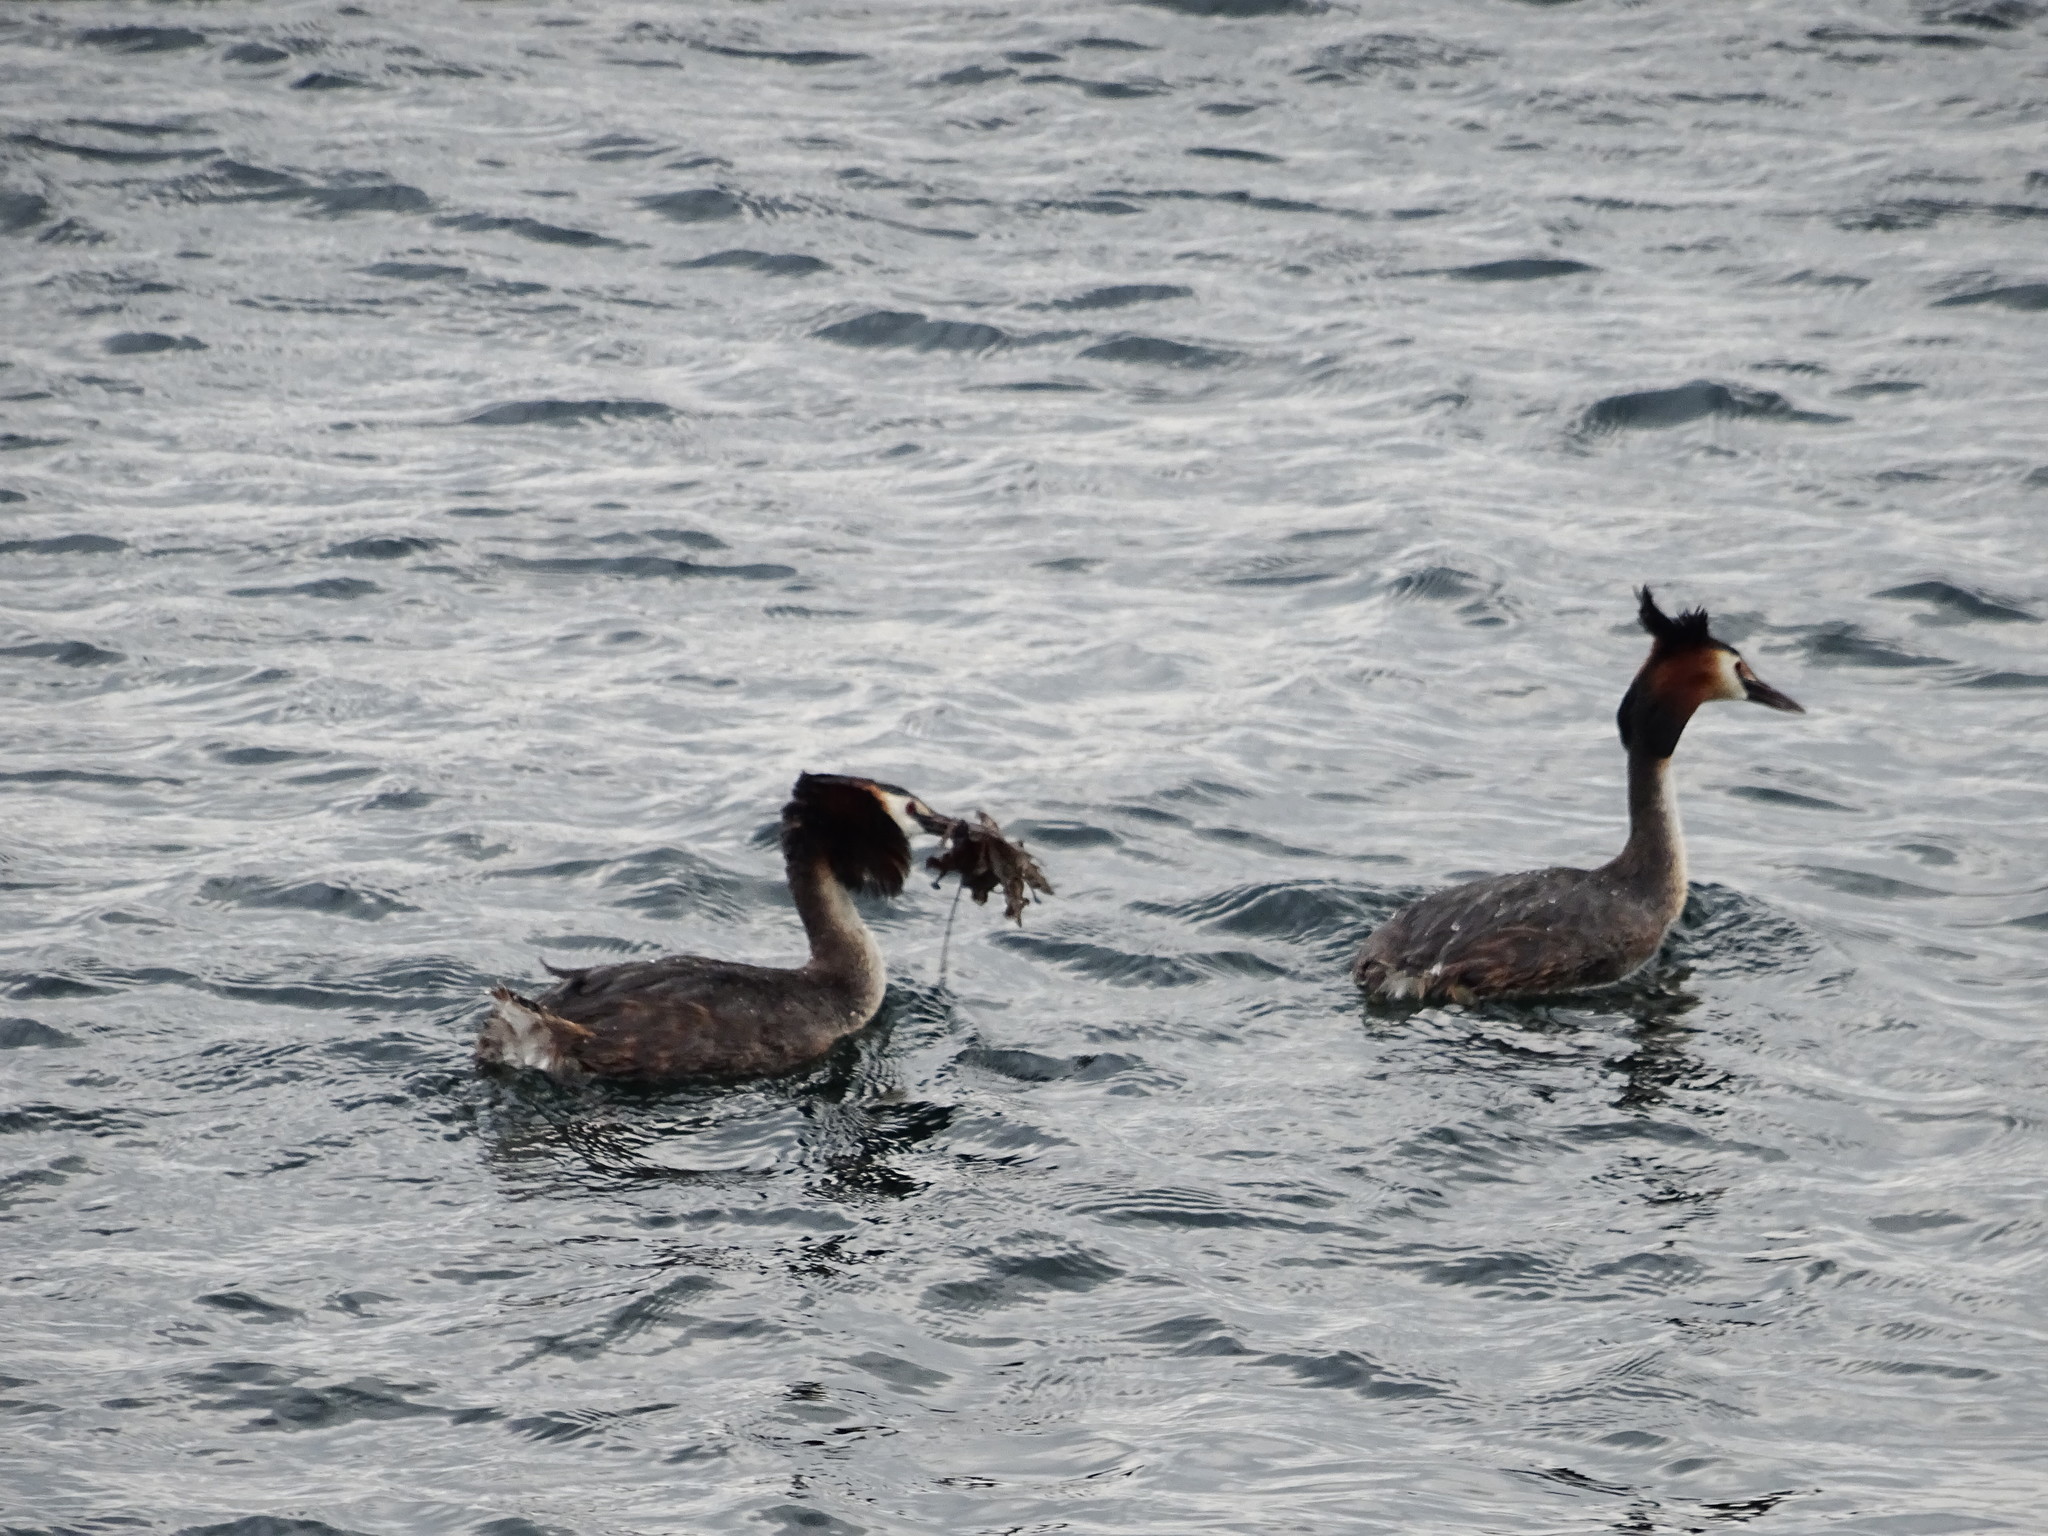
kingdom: Animalia
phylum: Chordata
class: Aves
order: Podicipediformes
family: Podicipedidae
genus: Podiceps
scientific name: Podiceps cristatus
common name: Great crested grebe
